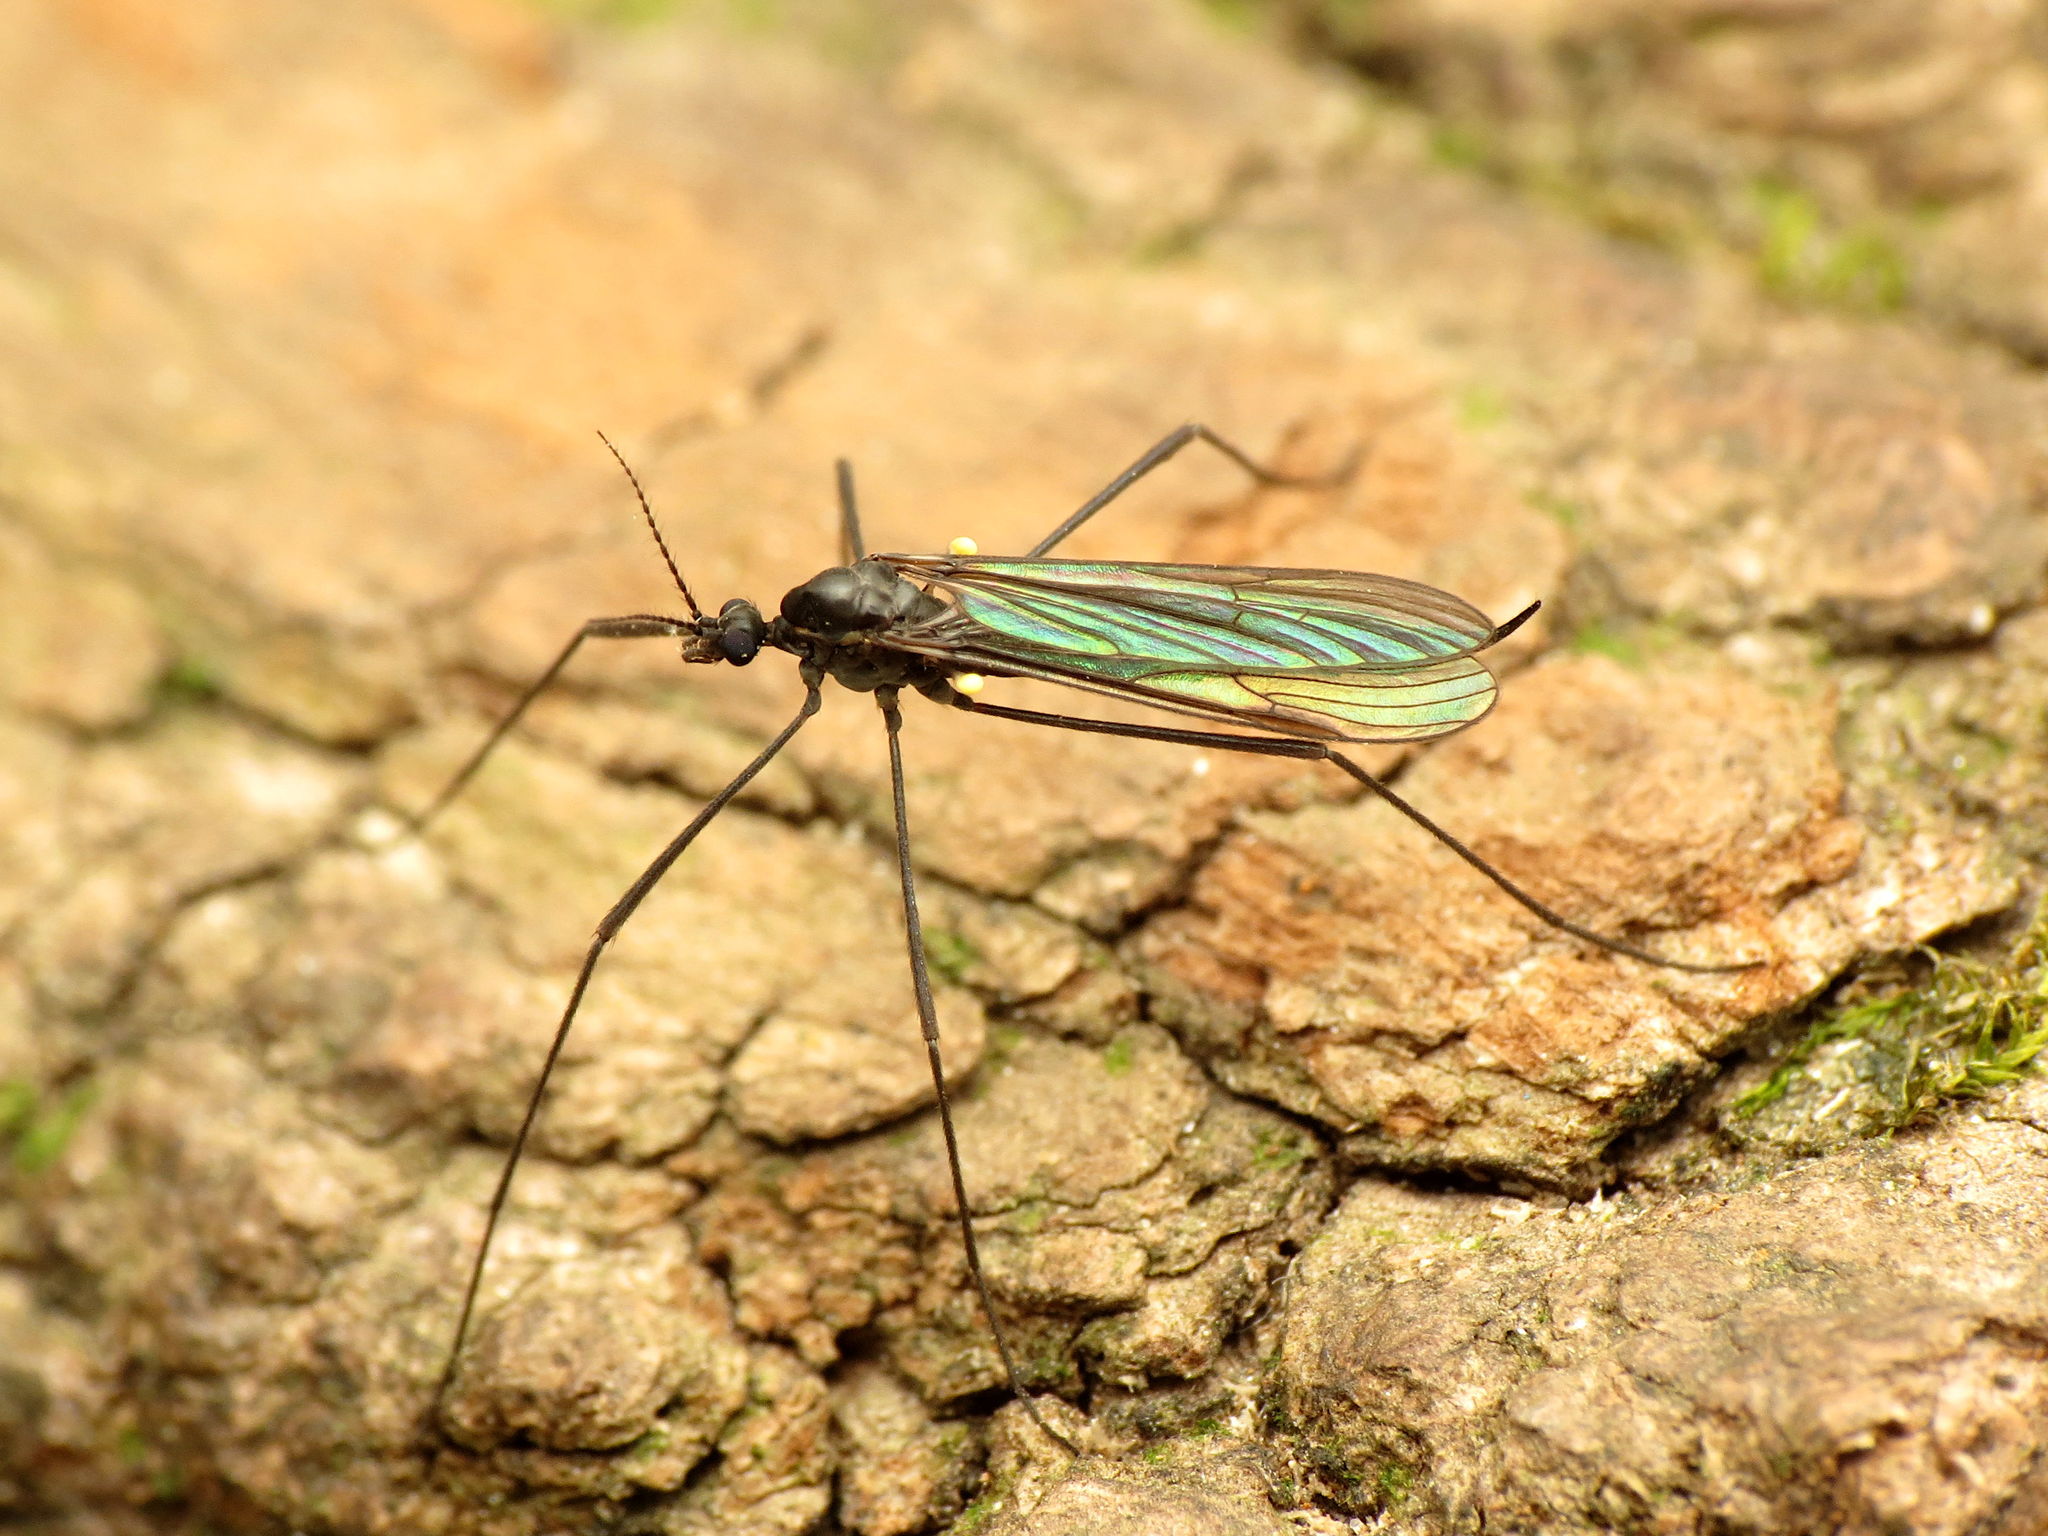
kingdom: Animalia
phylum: Arthropoda
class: Insecta
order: Diptera
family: Limoniidae
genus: Gnophomyia
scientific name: Gnophomyia tristissima
